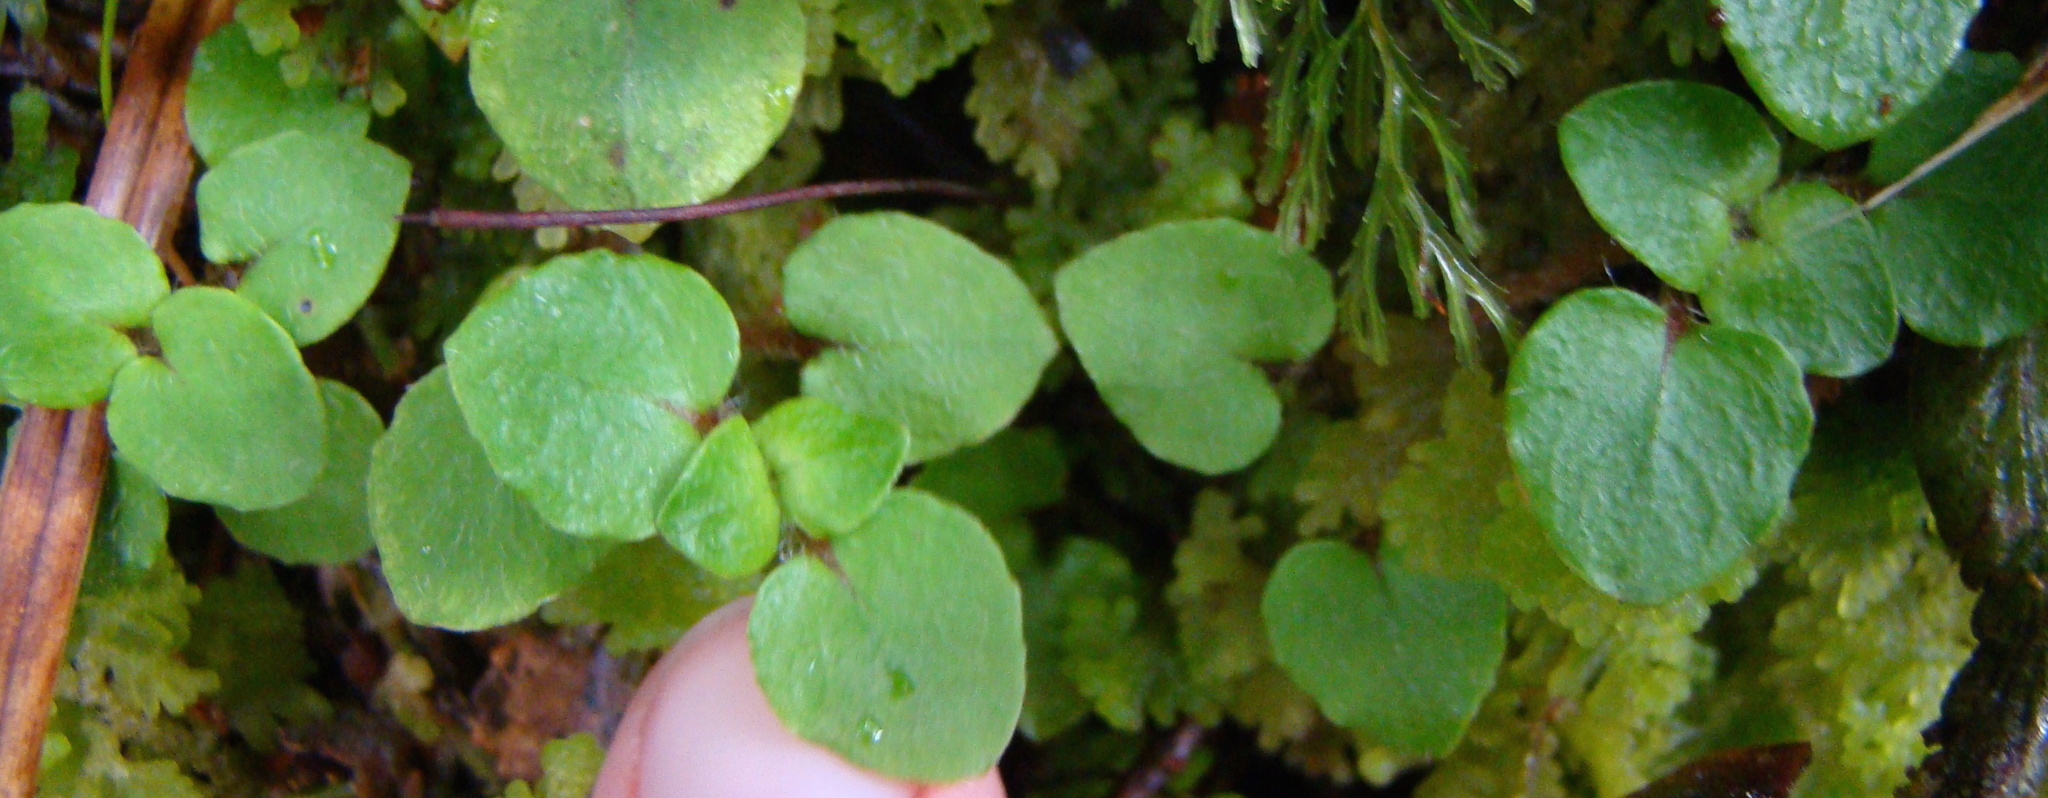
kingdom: Plantae
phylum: Tracheophyta
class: Magnoliopsida
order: Gentianales
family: Rubiaceae
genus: Nertera
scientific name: Nertera villosa
